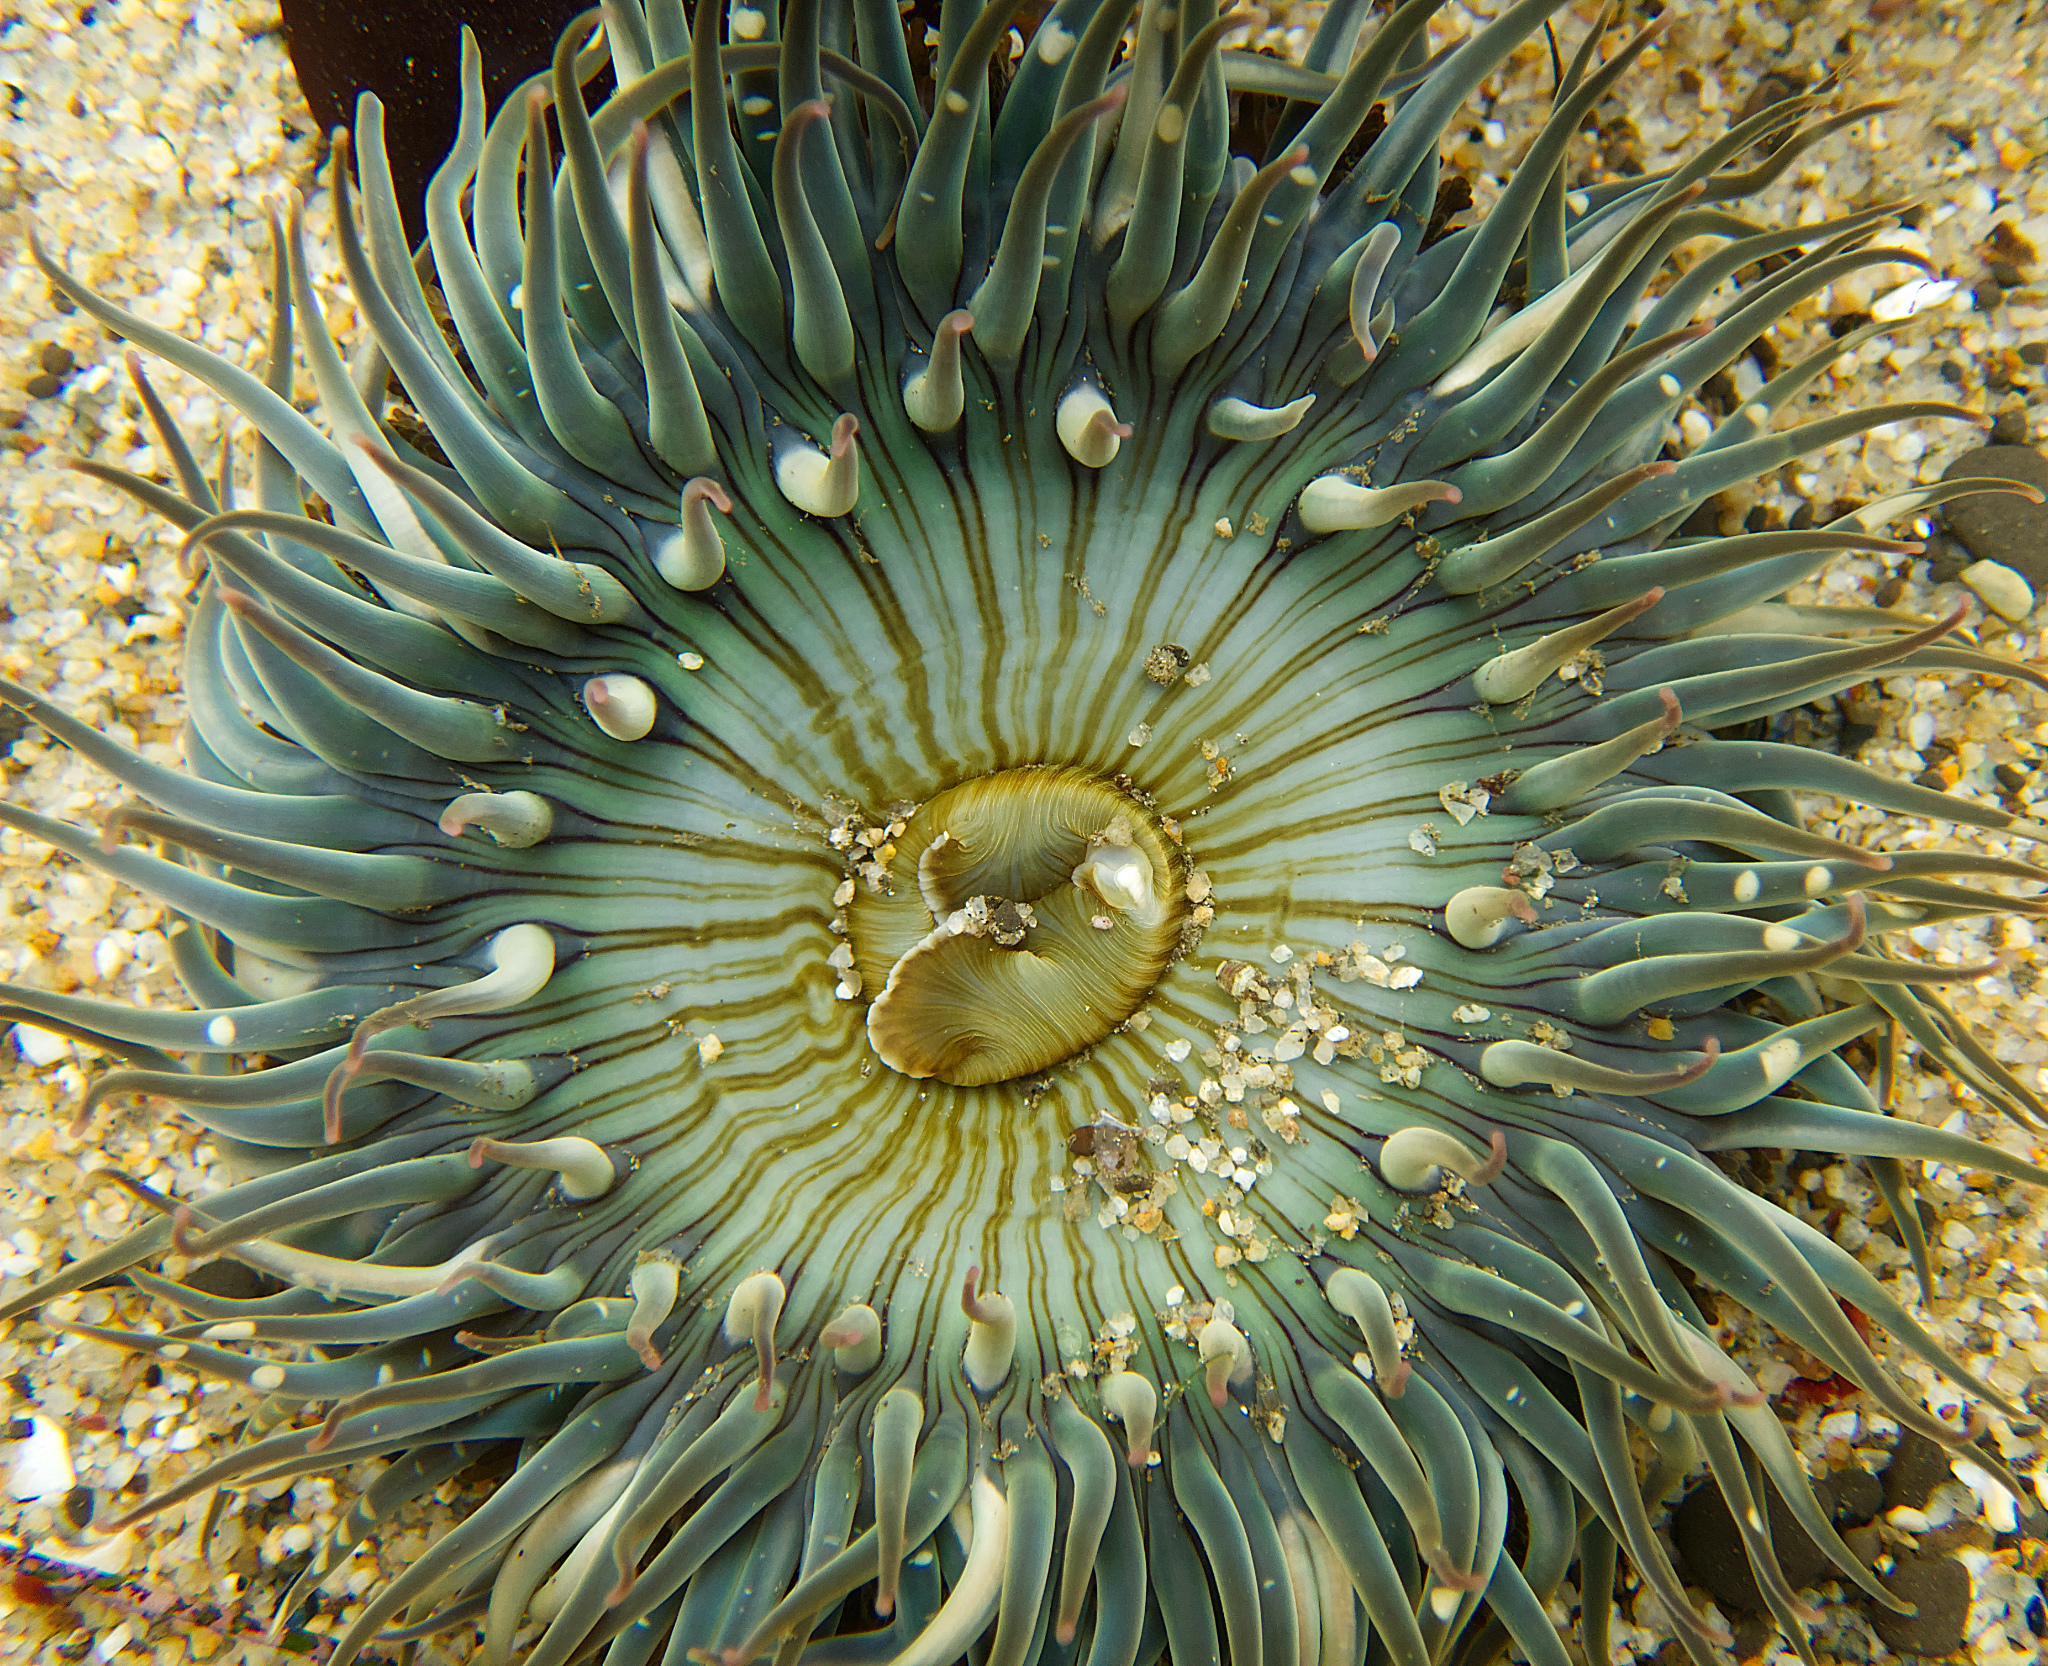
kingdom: Animalia
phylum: Cnidaria
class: Anthozoa
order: Actiniaria
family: Actiniidae
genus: Anthopleura
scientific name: Anthopleura sola
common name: Sun anemone
